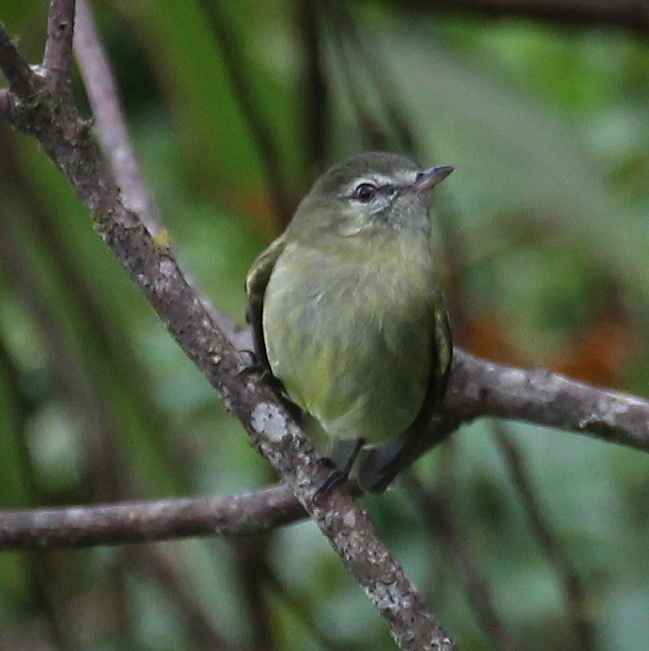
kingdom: Animalia
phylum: Chordata
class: Aves
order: Passeriformes
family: Tyrannidae
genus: Phyllomyias
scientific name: Phyllomyias virescens
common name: Greenish tyrannulet
